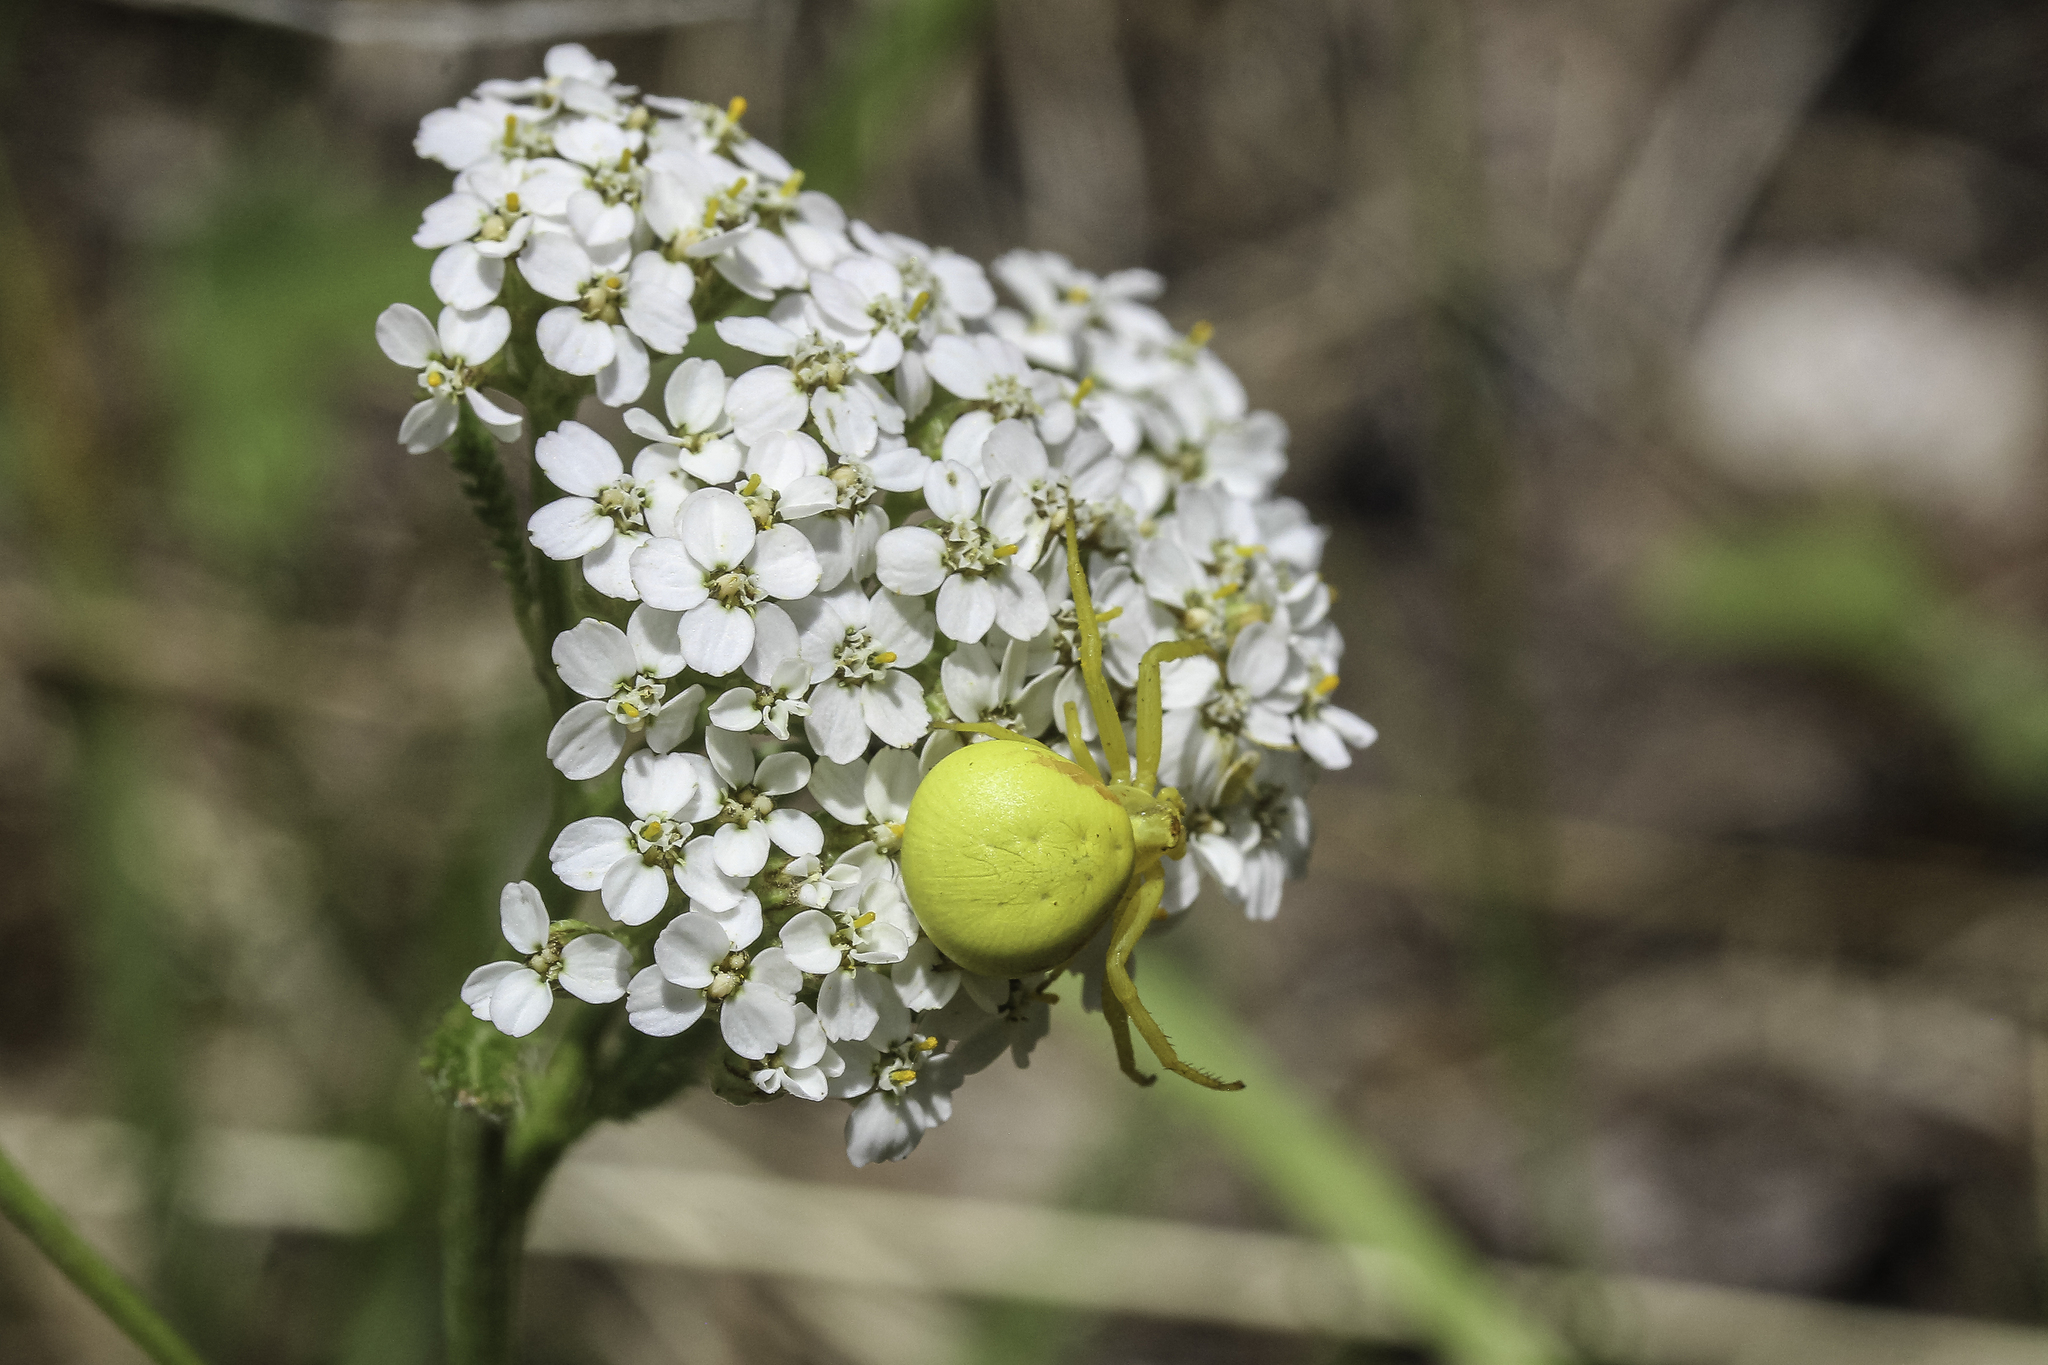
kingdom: Animalia
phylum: Arthropoda
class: Arachnida
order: Araneae
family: Thomisidae
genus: Misumena
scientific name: Misumena vatia
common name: Goldenrod crab spider
